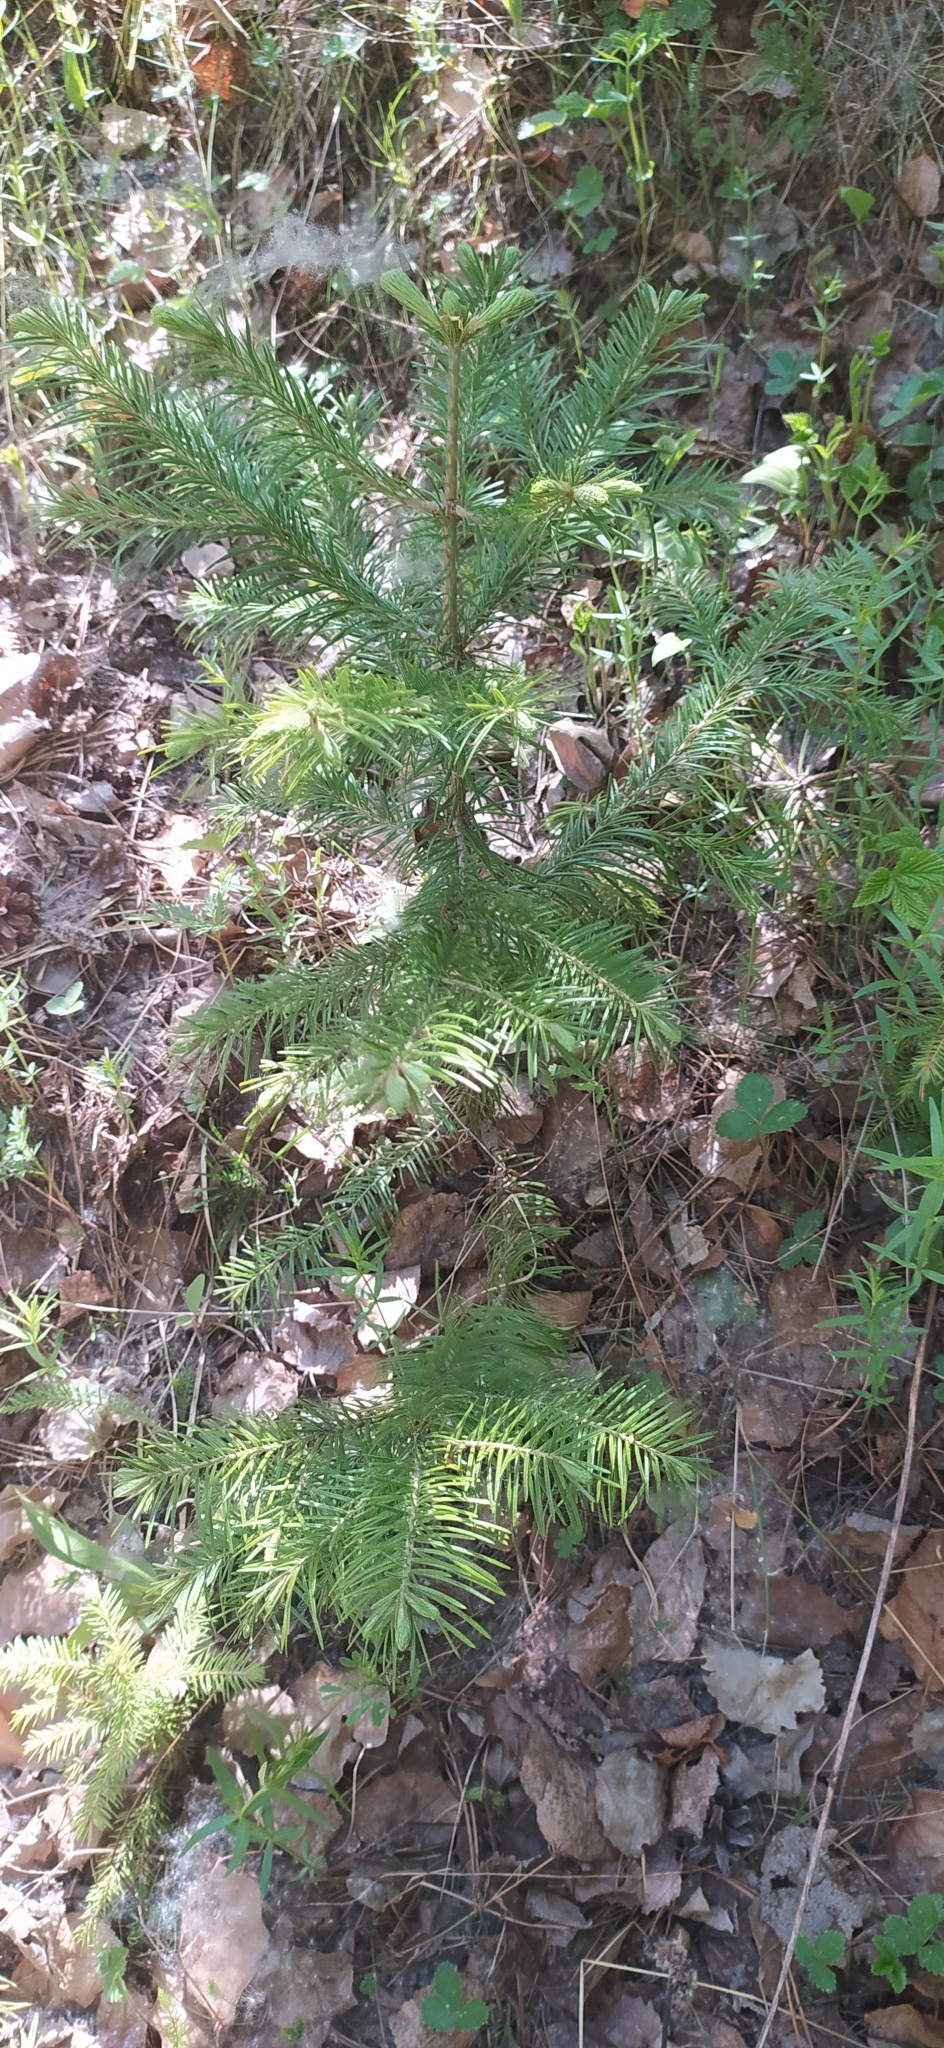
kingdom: Plantae
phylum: Tracheophyta
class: Pinopsida
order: Pinales
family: Pinaceae
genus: Abies
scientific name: Abies sibirica
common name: Siberian fir
